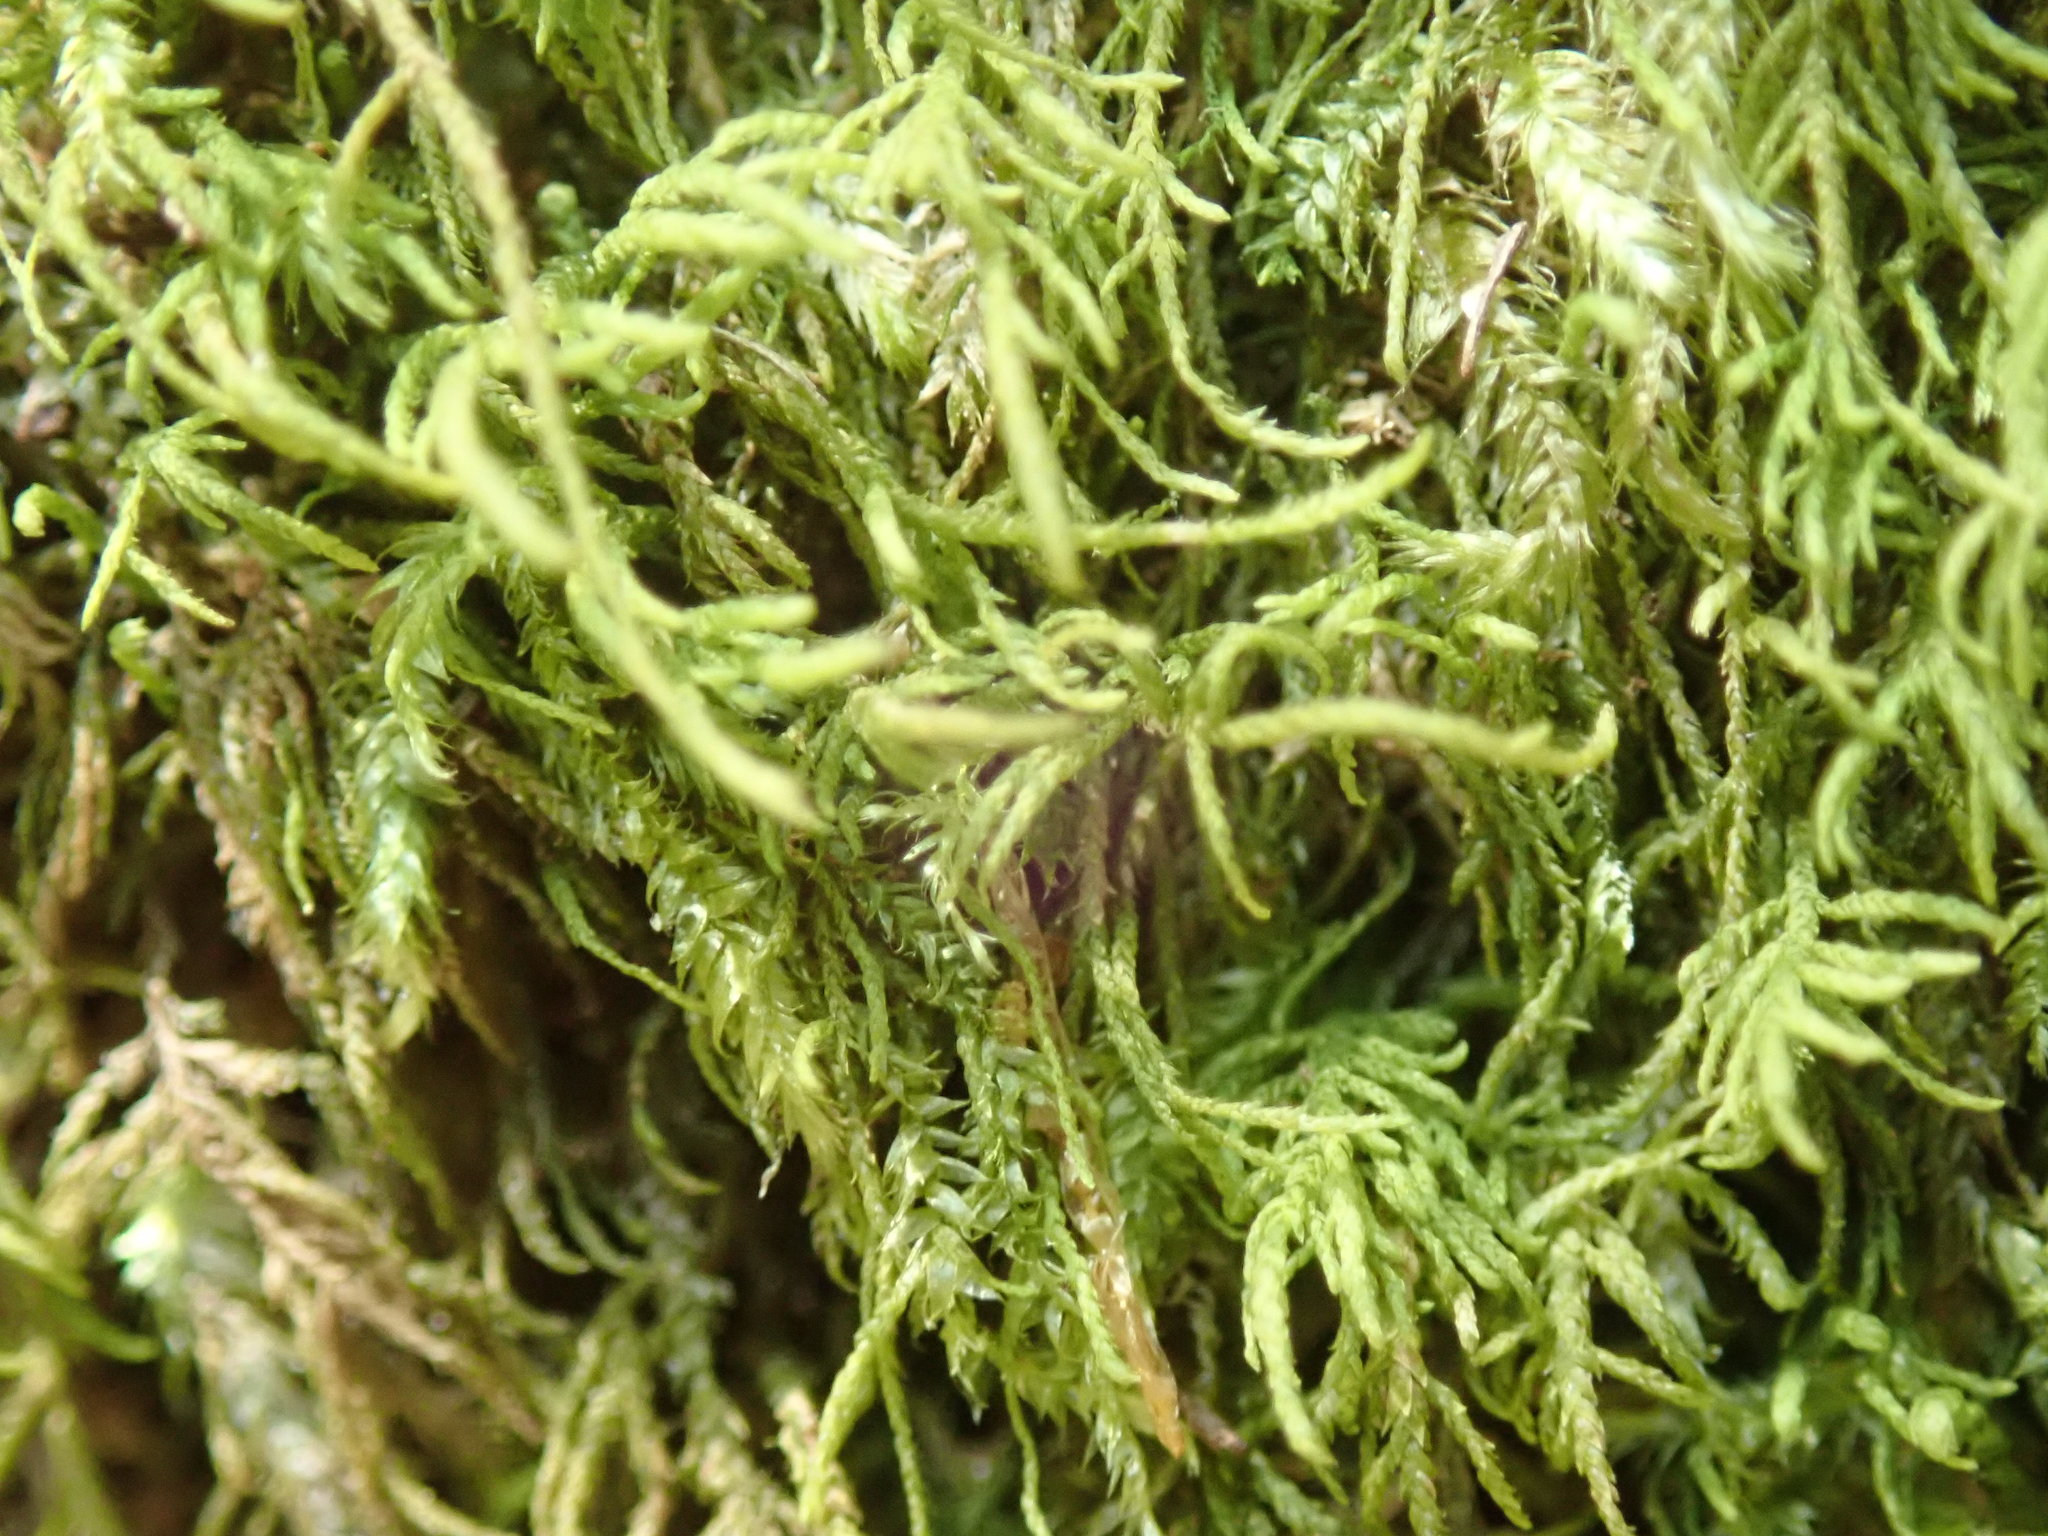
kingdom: Plantae
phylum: Bryophyta
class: Bryopsida
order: Hypnales
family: Lembophyllaceae
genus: Heterocladium
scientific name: Heterocladium macounii
